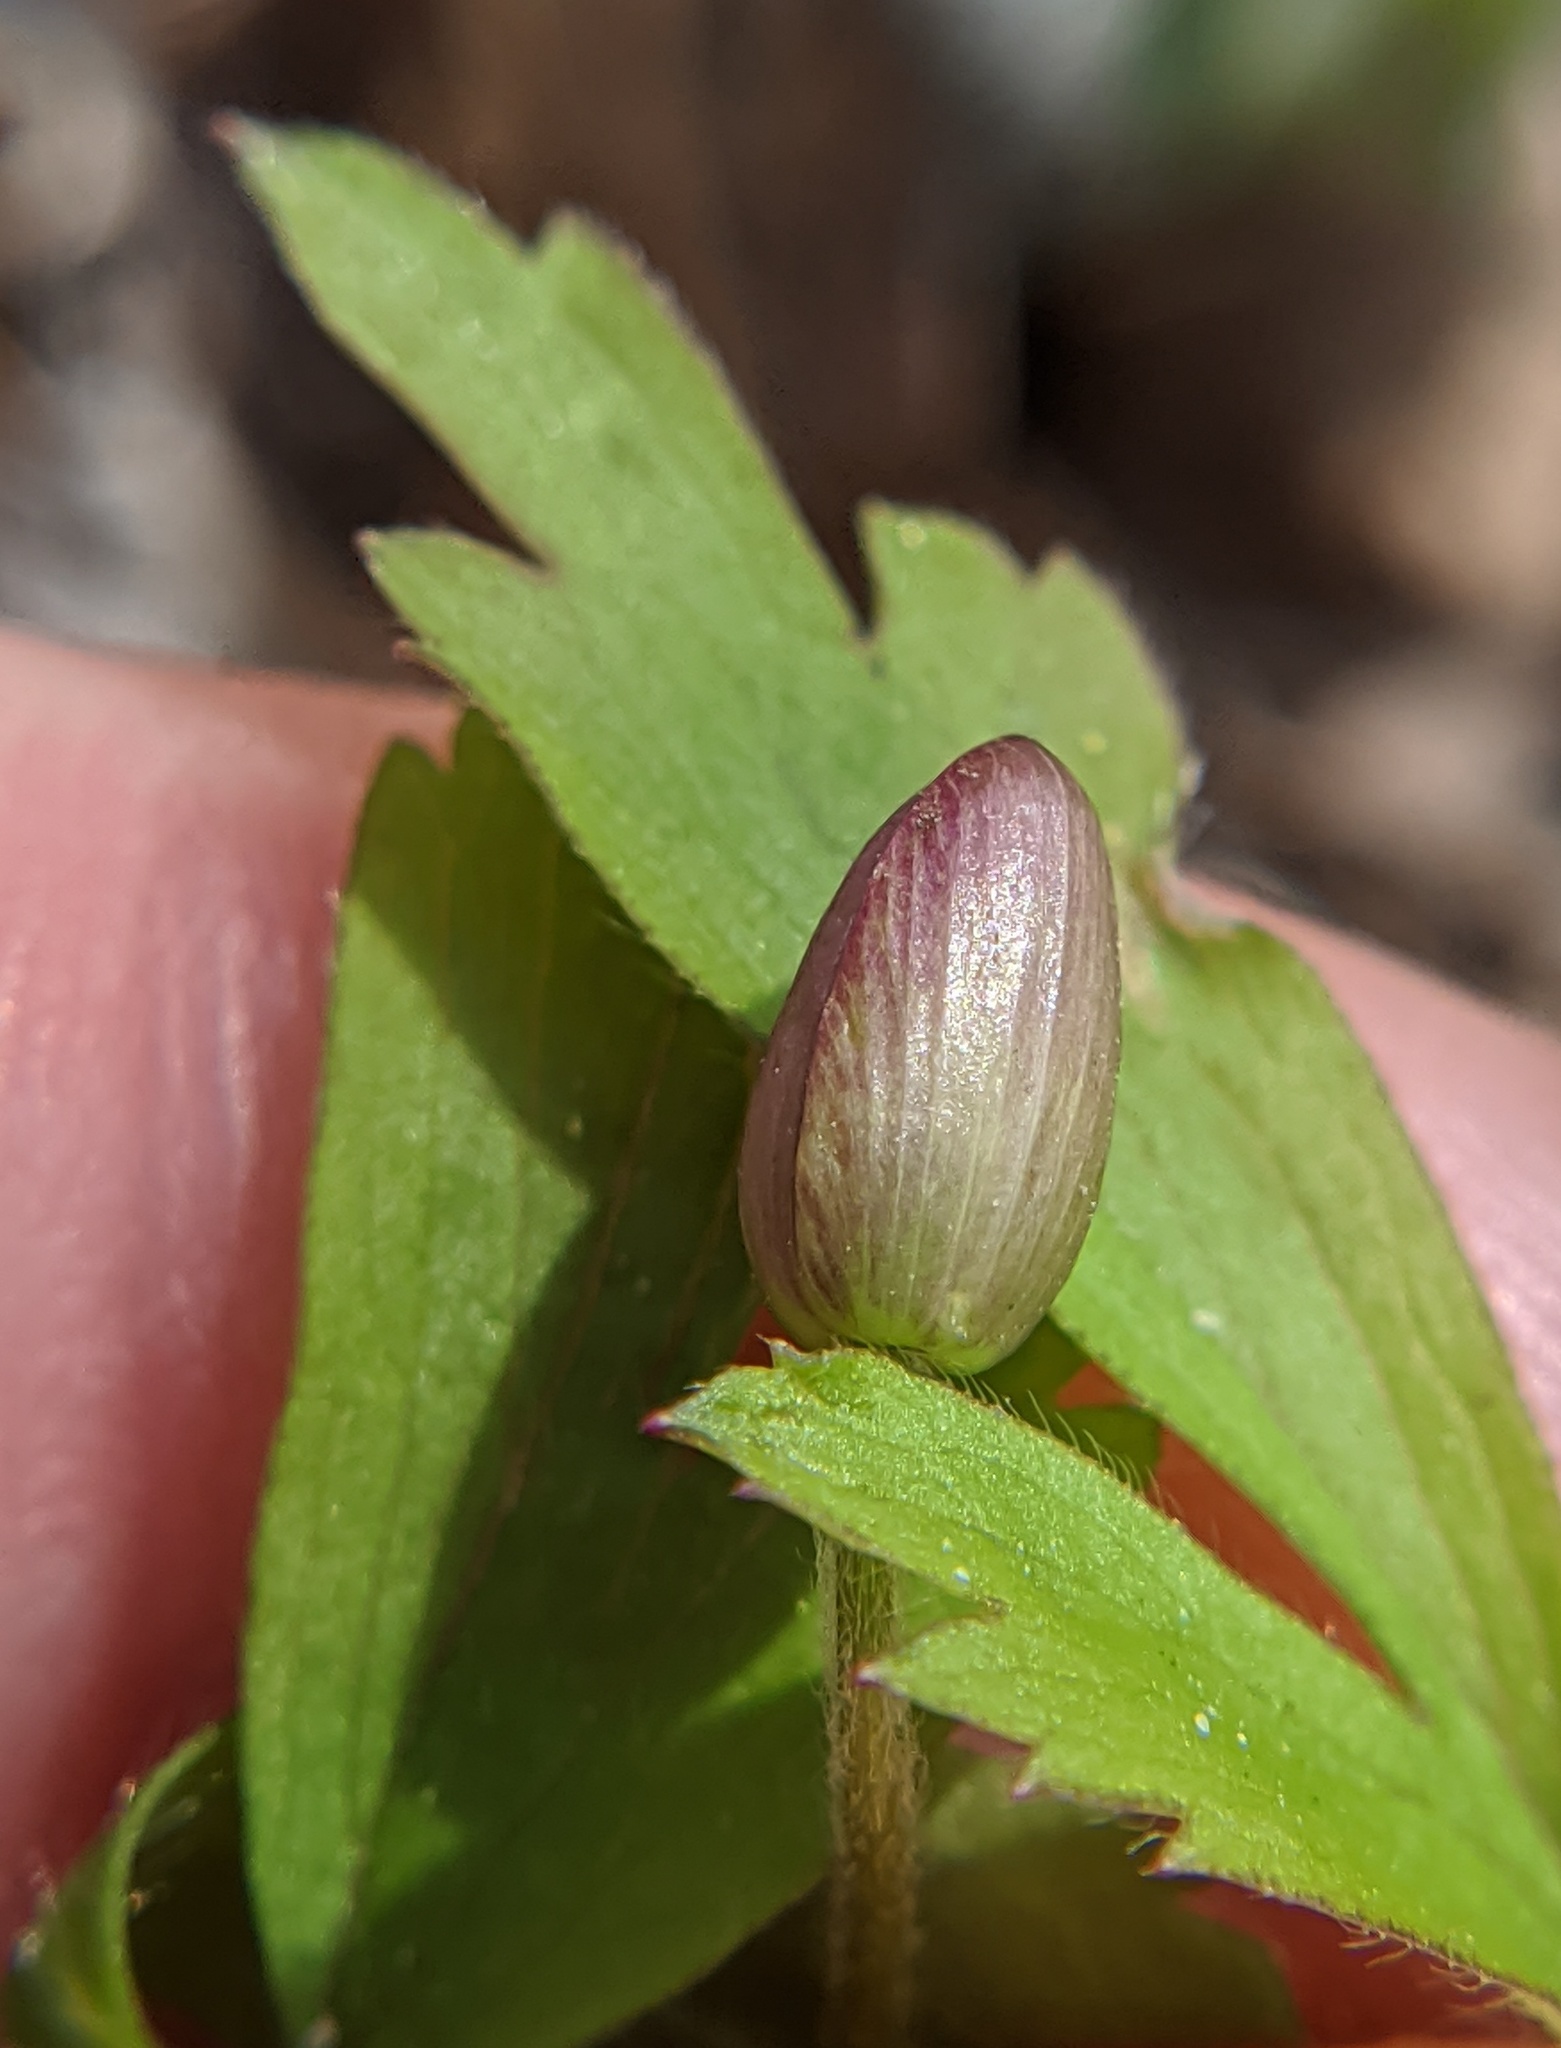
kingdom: Plantae
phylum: Tracheophyta
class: Magnoliopsida
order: Ranunculales
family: Ranunculaceae
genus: Anemone
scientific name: Anemone quinquefolia
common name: Wood anemone
